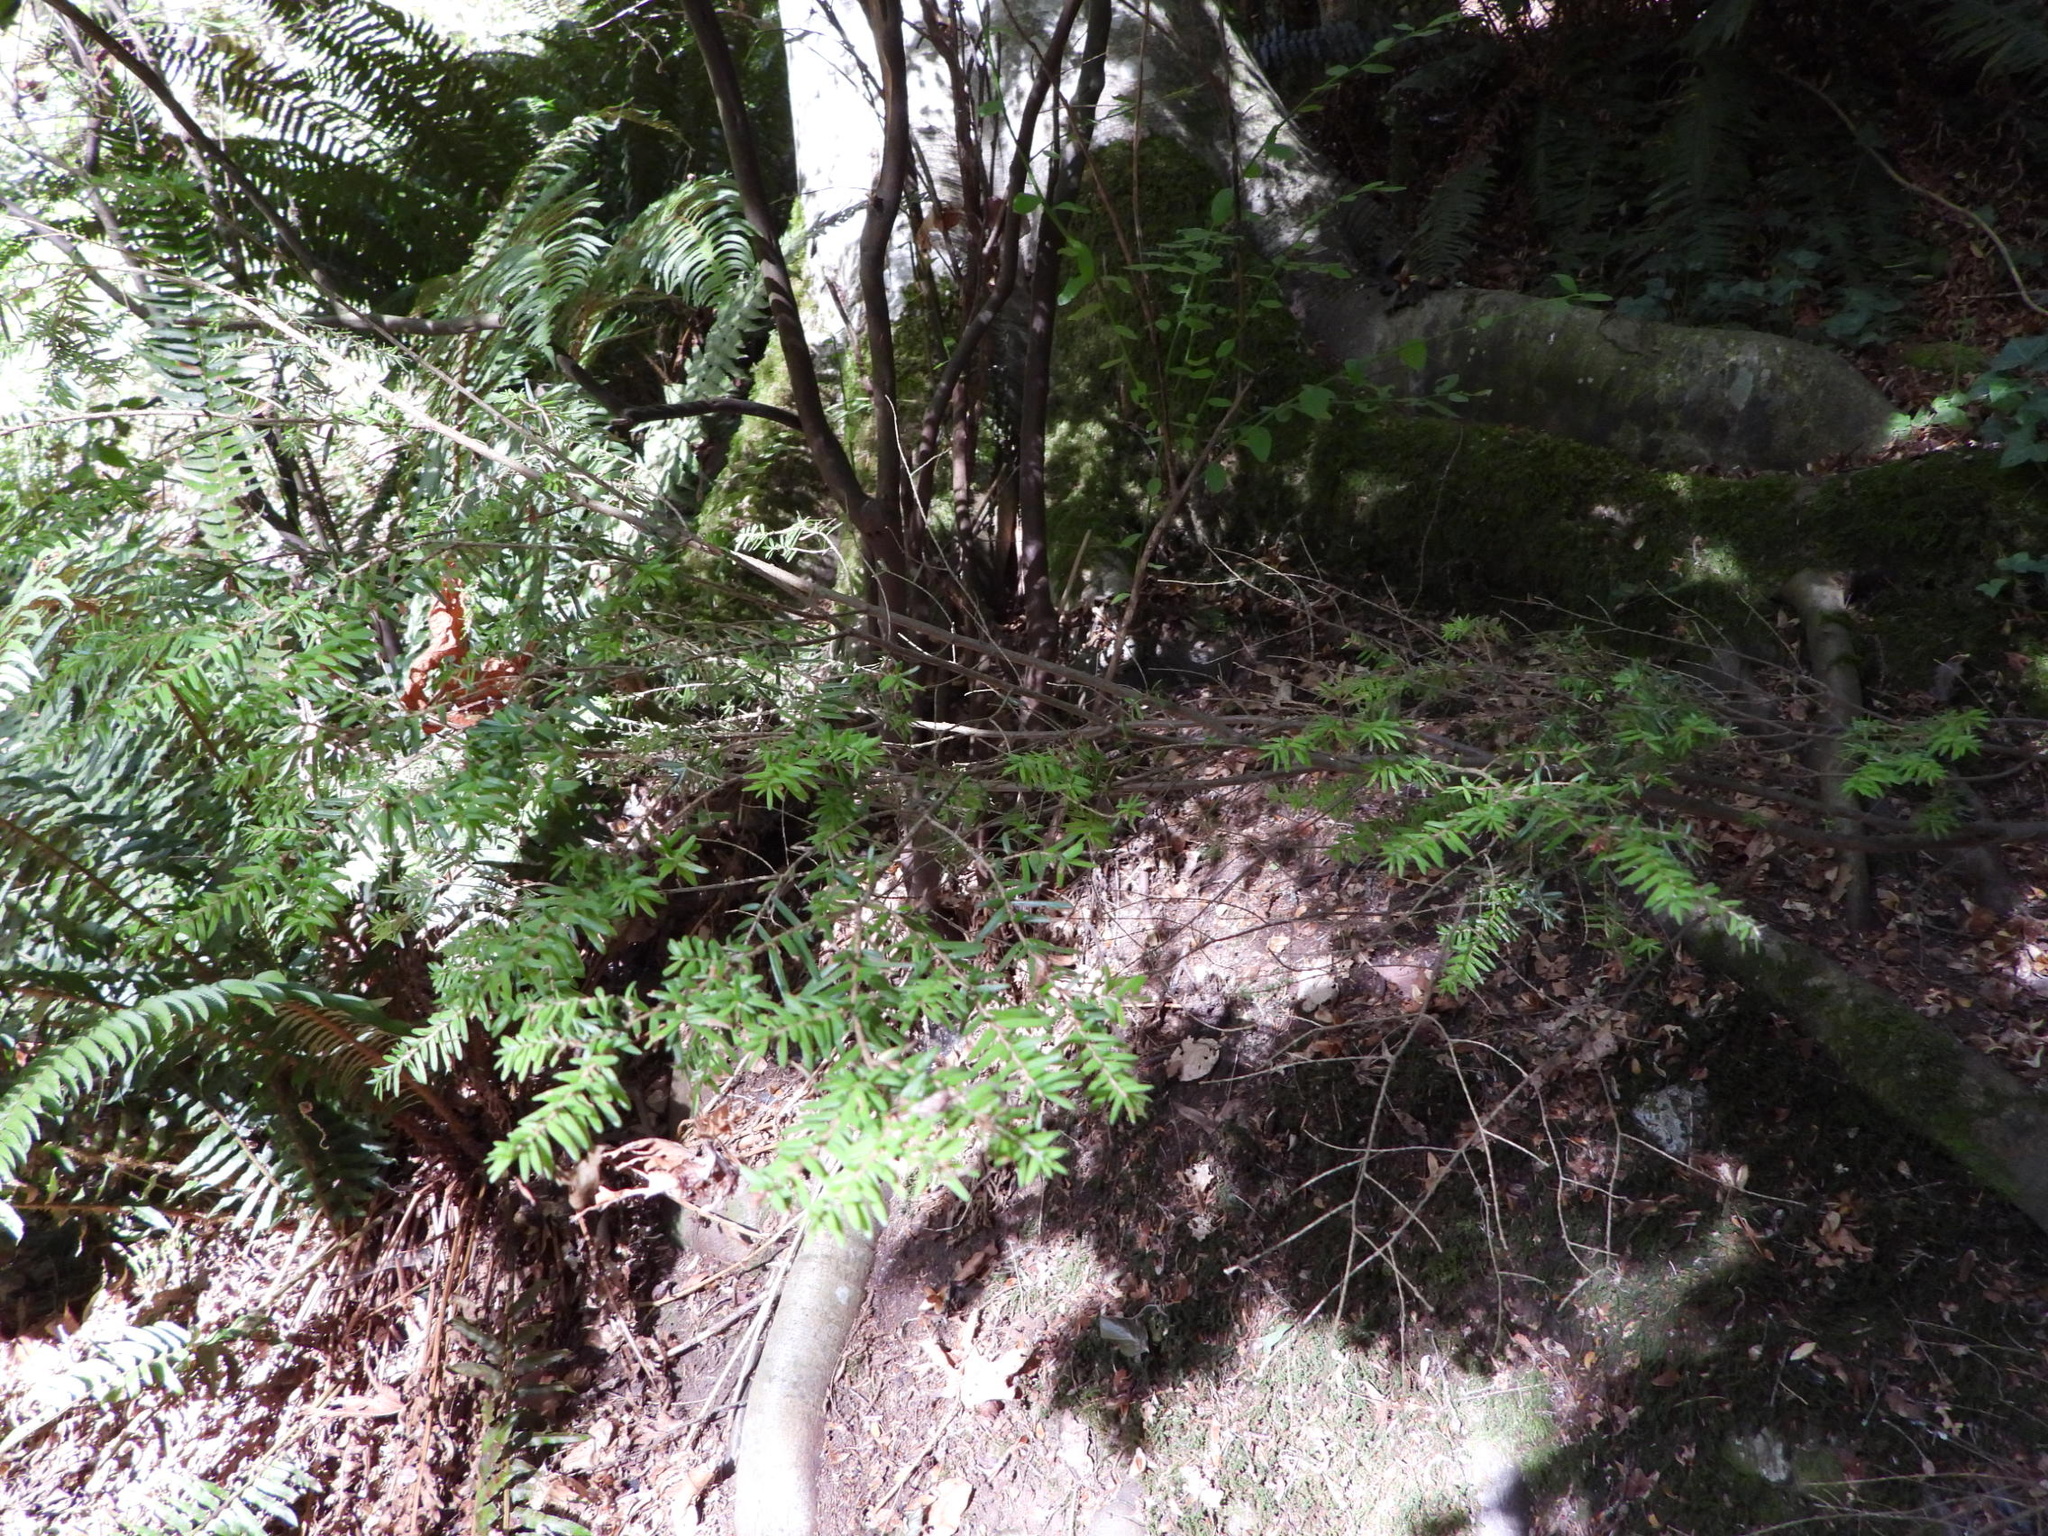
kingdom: Plantae
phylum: Tracheophyta
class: Pinopsida
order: Pinales
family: Pinaceae
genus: Tsuga
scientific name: Tsuga heterophylla
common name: Western hemlock
